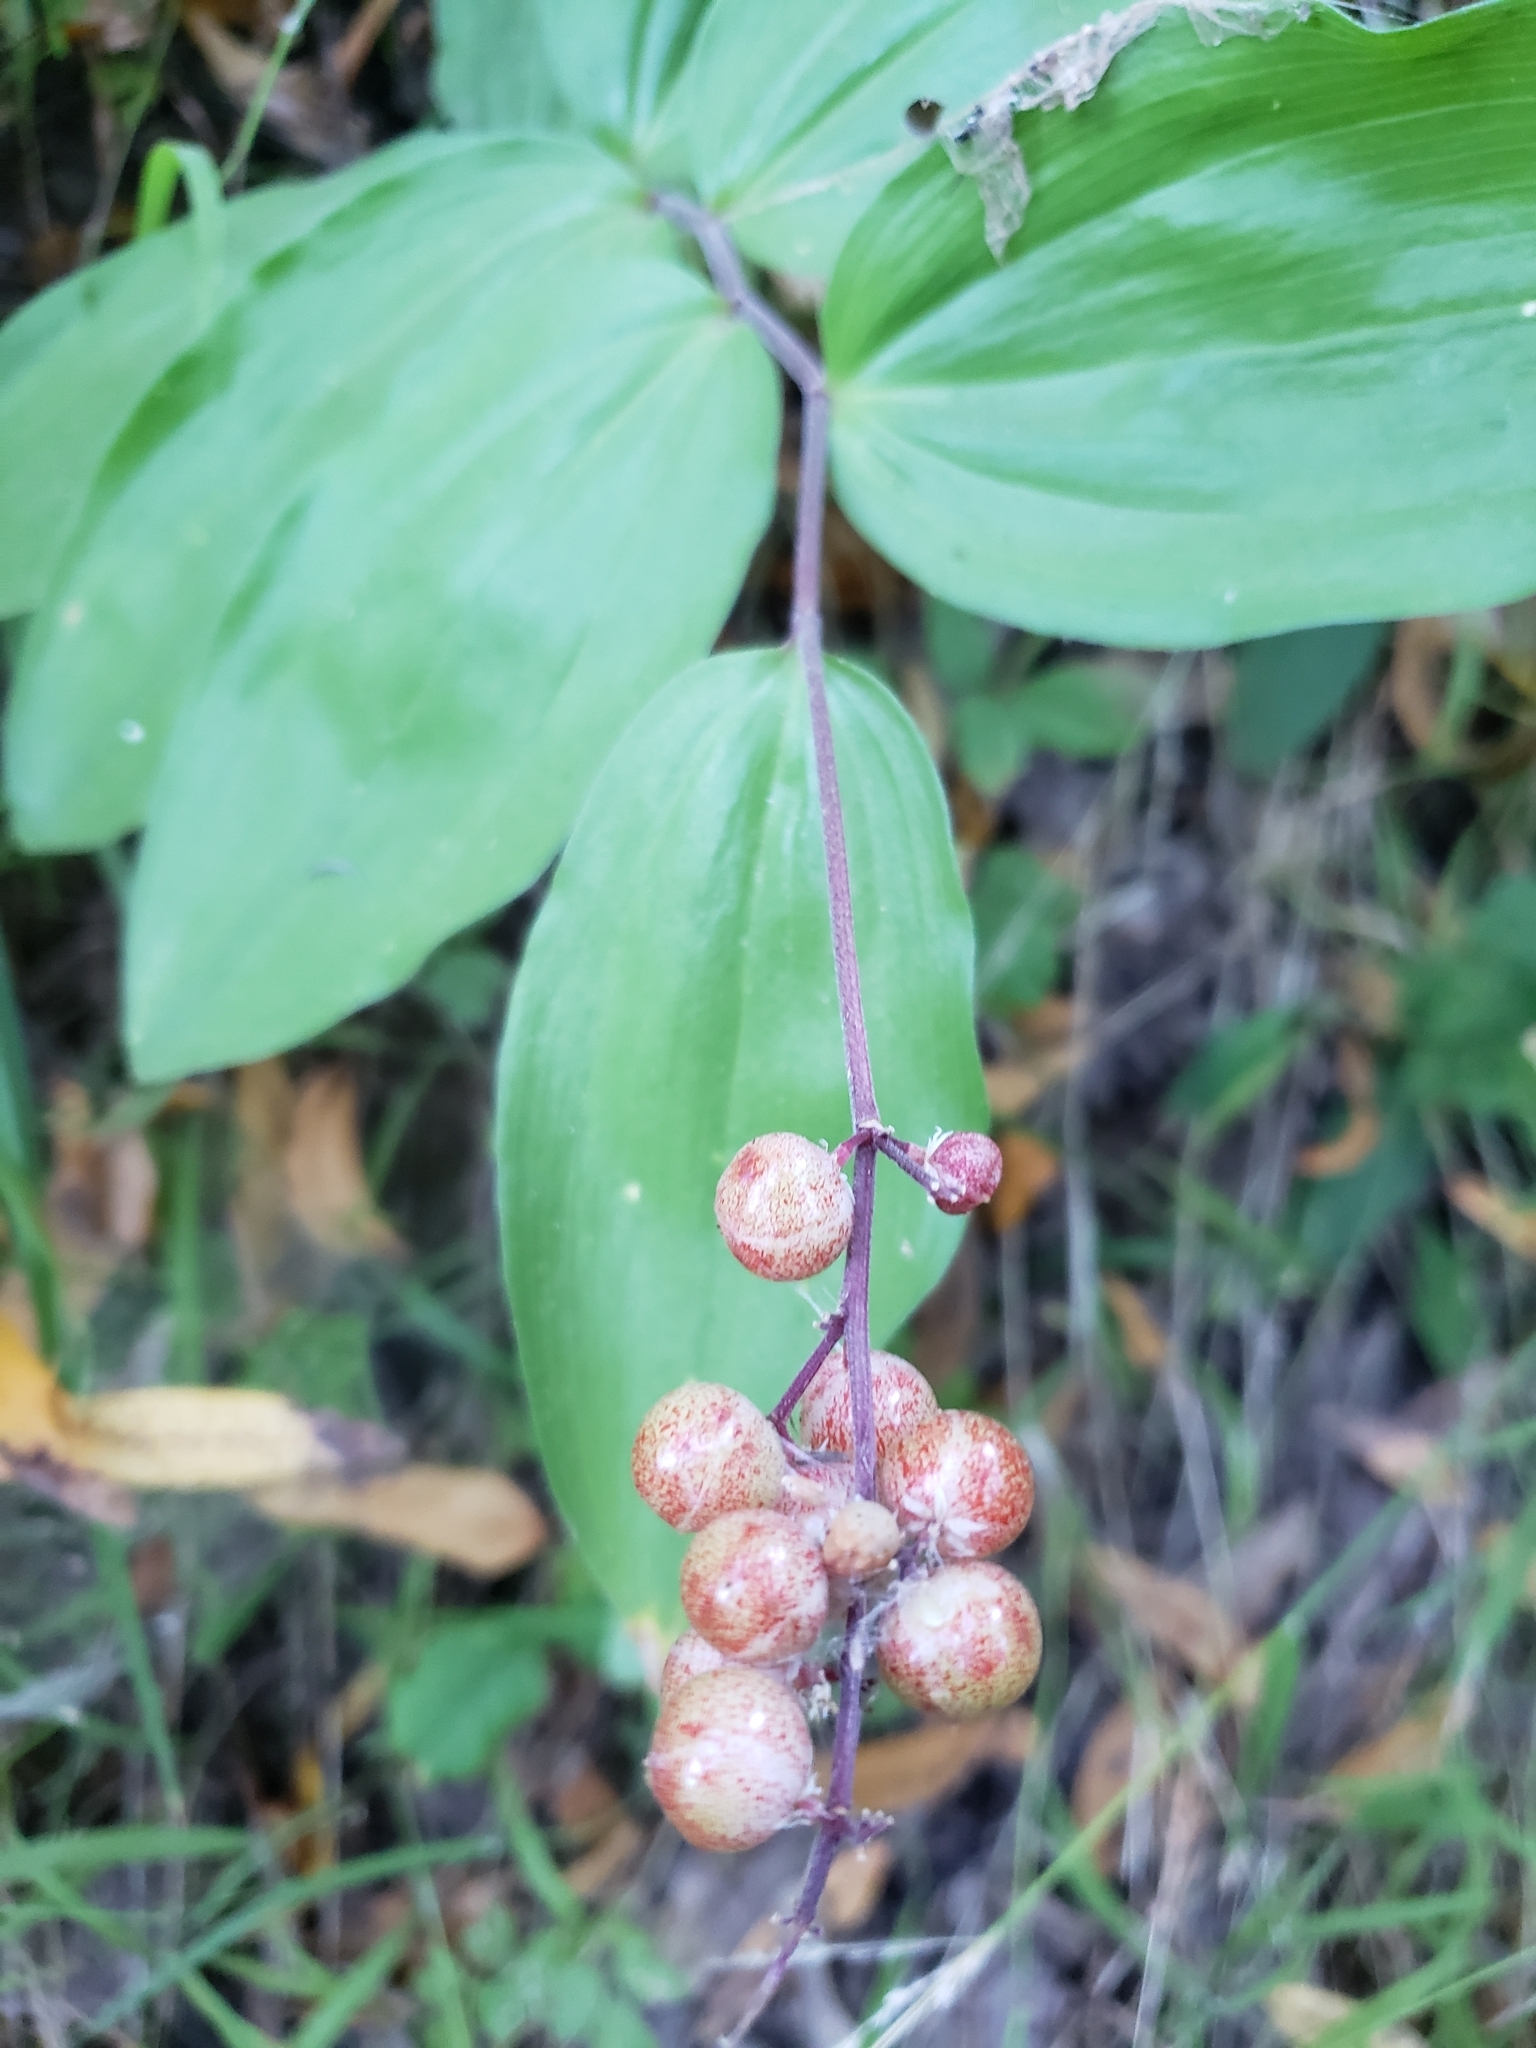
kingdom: Plantae
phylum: Tracheophyta
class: Liliopsida
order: Asparagales
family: Asparagaceae
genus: Maianthemum
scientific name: Maianthemum racemosum
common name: False spikenard
